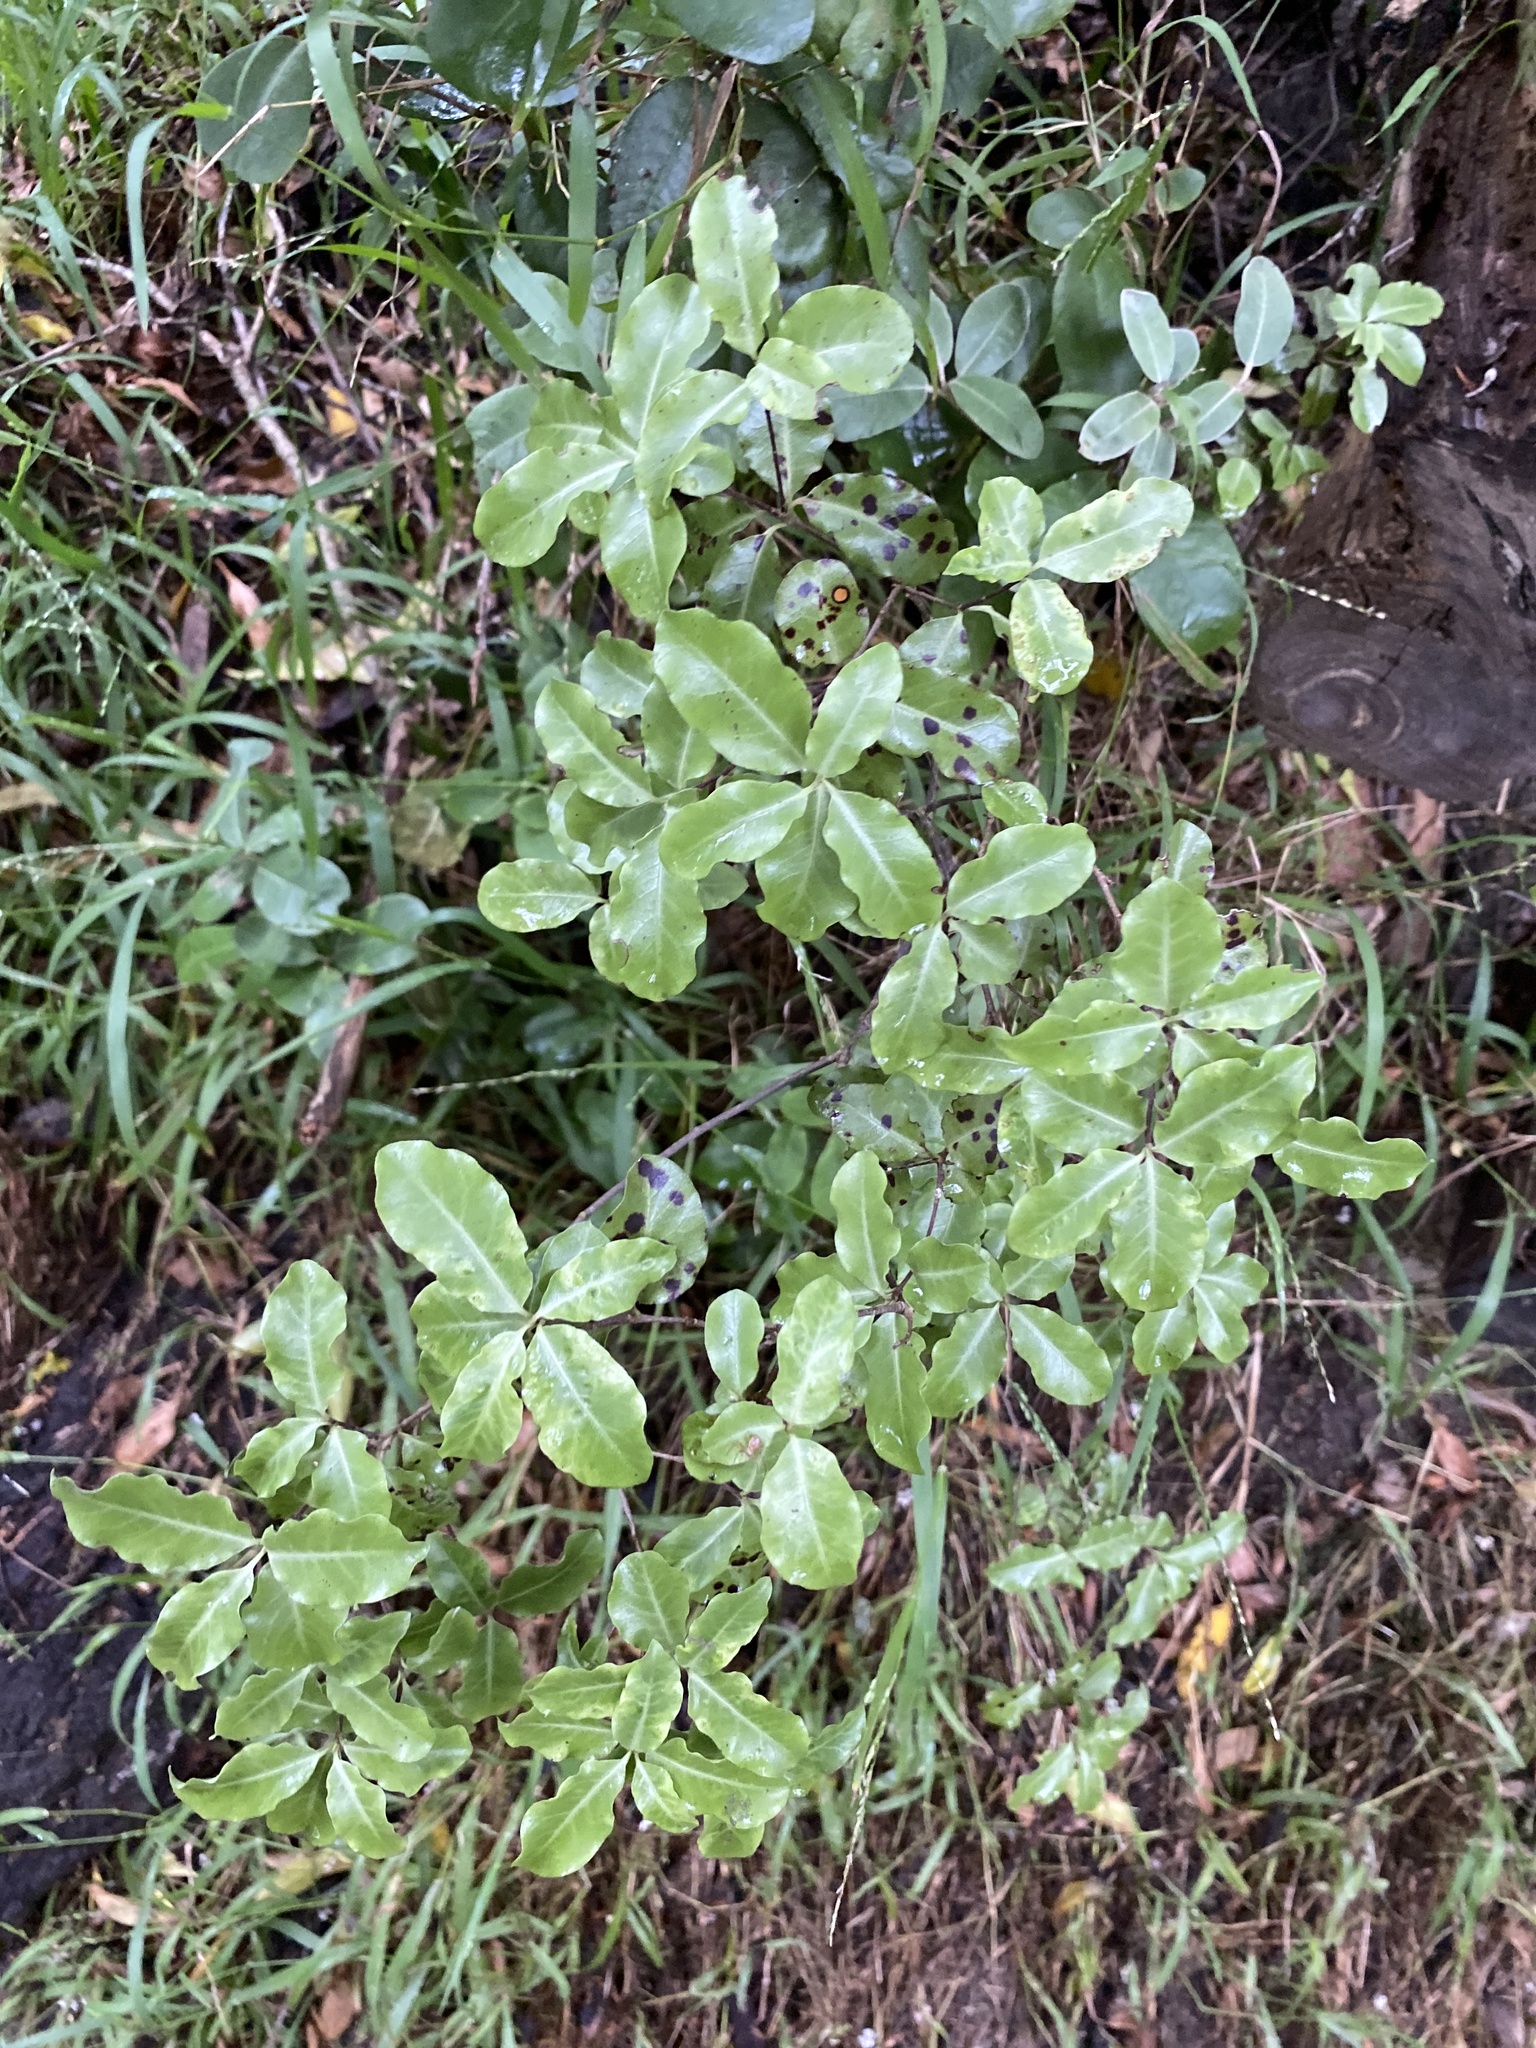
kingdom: Plantae
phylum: Tracheophyta
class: Magnoliopsida
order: Apiales
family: Pittosporaceae
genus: Pittosporum
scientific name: Pittosporum tenuifolium
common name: Kohuhu
